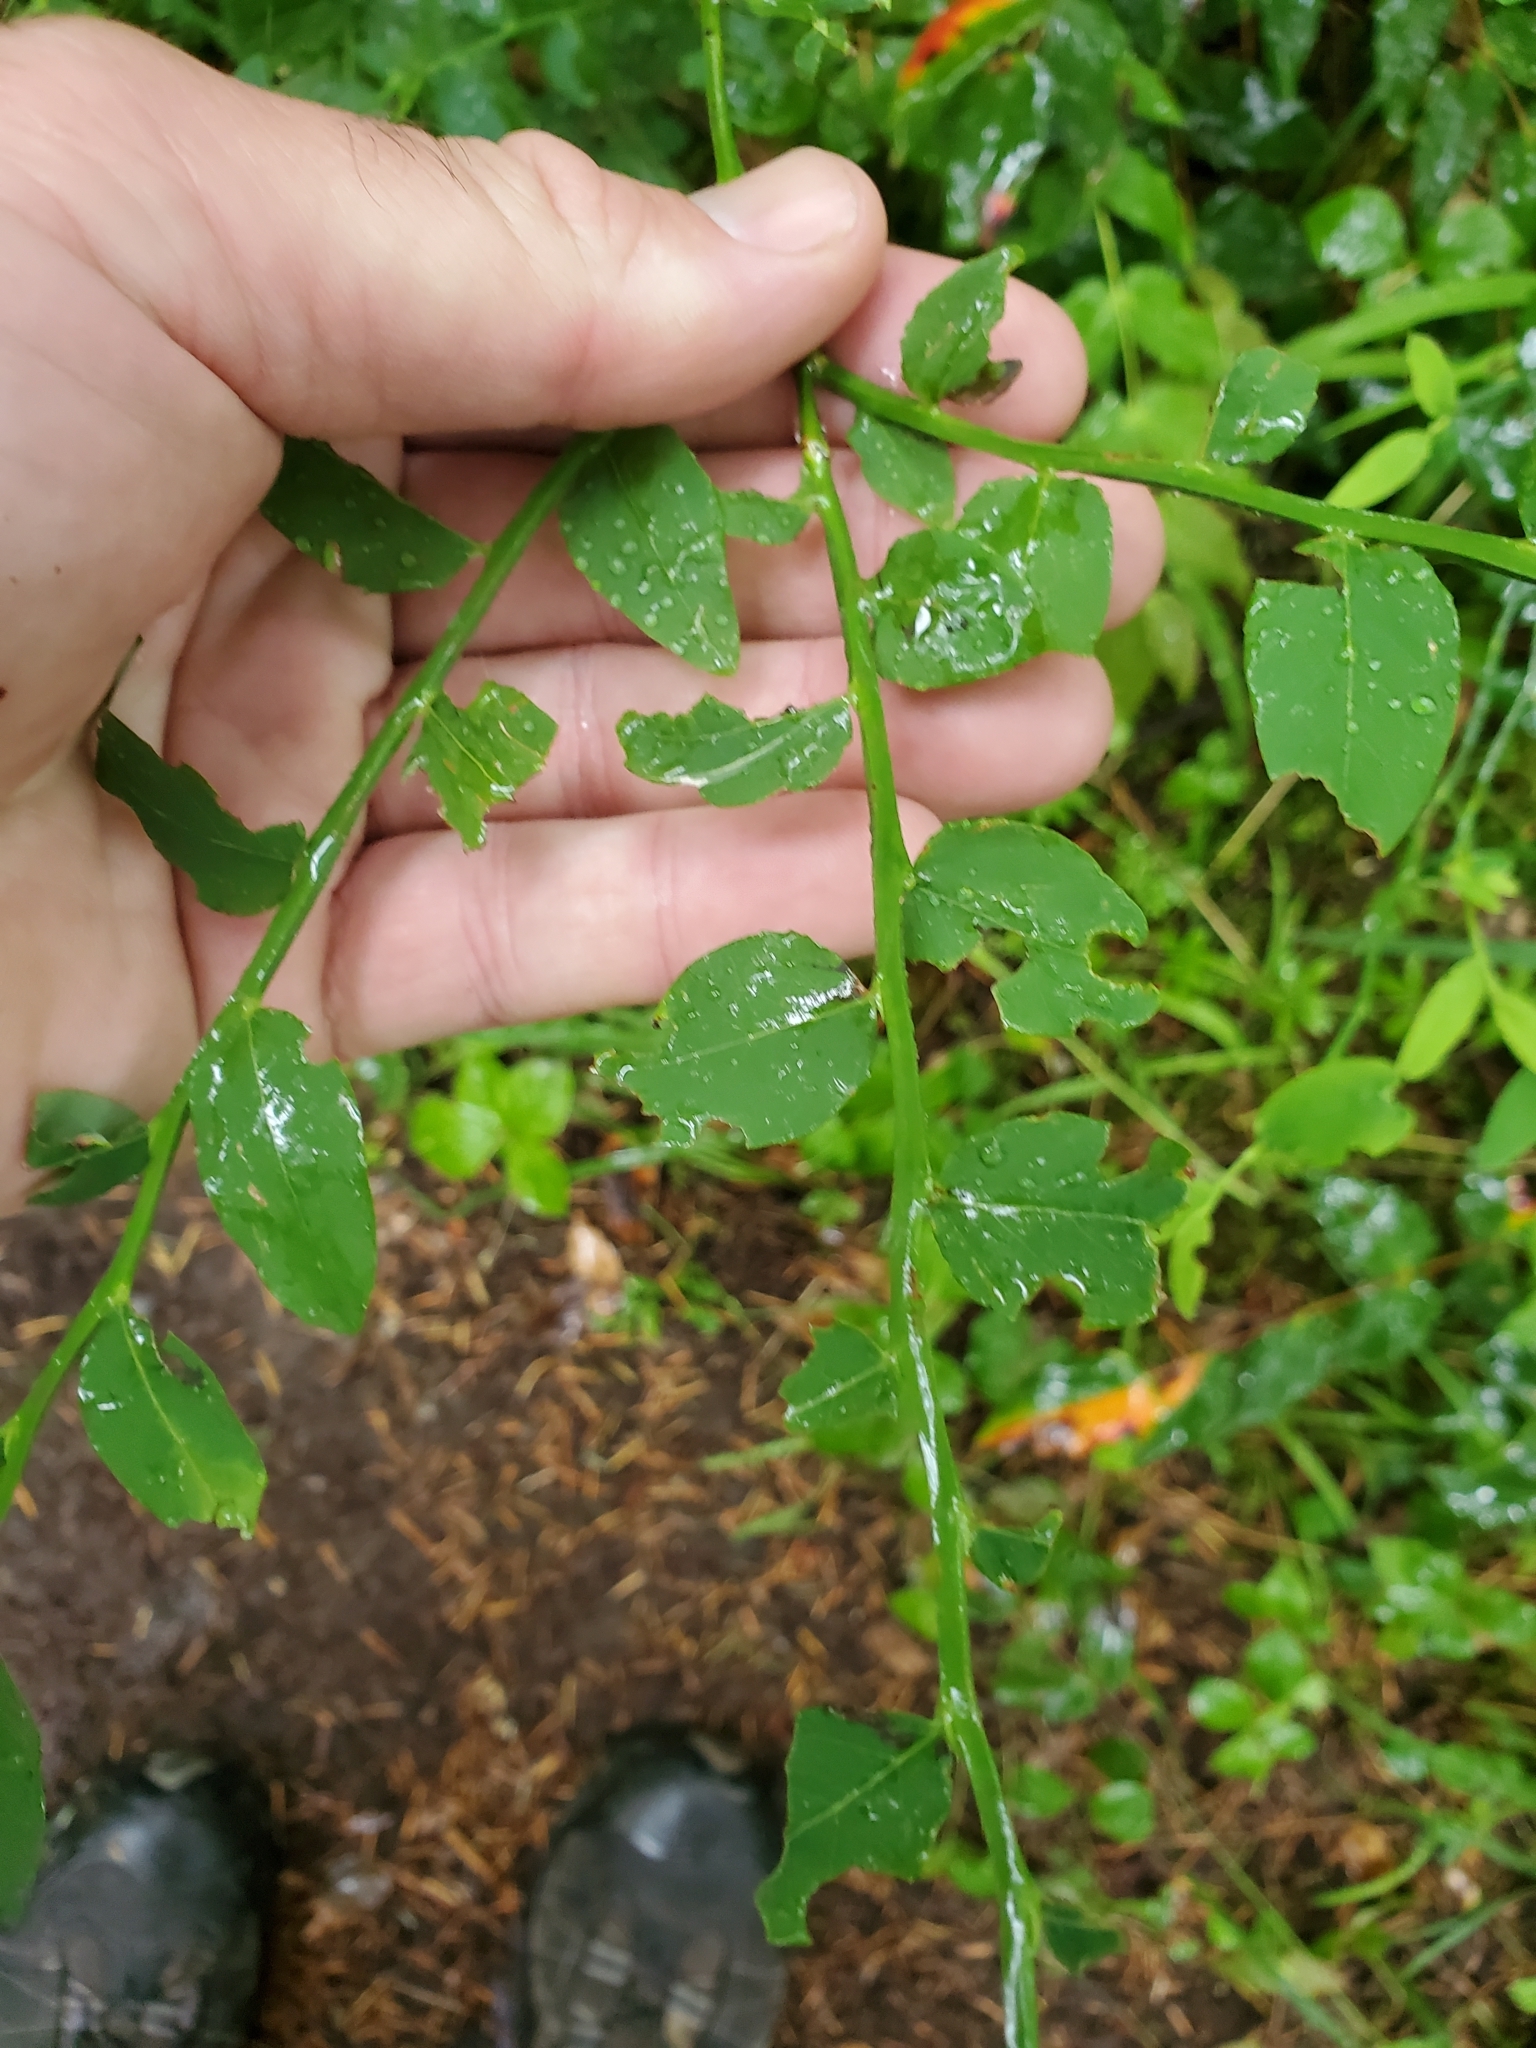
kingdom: Plantae
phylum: Tracheophyta
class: Magnoliopsida
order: Ericales
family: Ericaceae
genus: Vaccinium
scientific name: Vaccinium parvifolium
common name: Red-huckleberry
